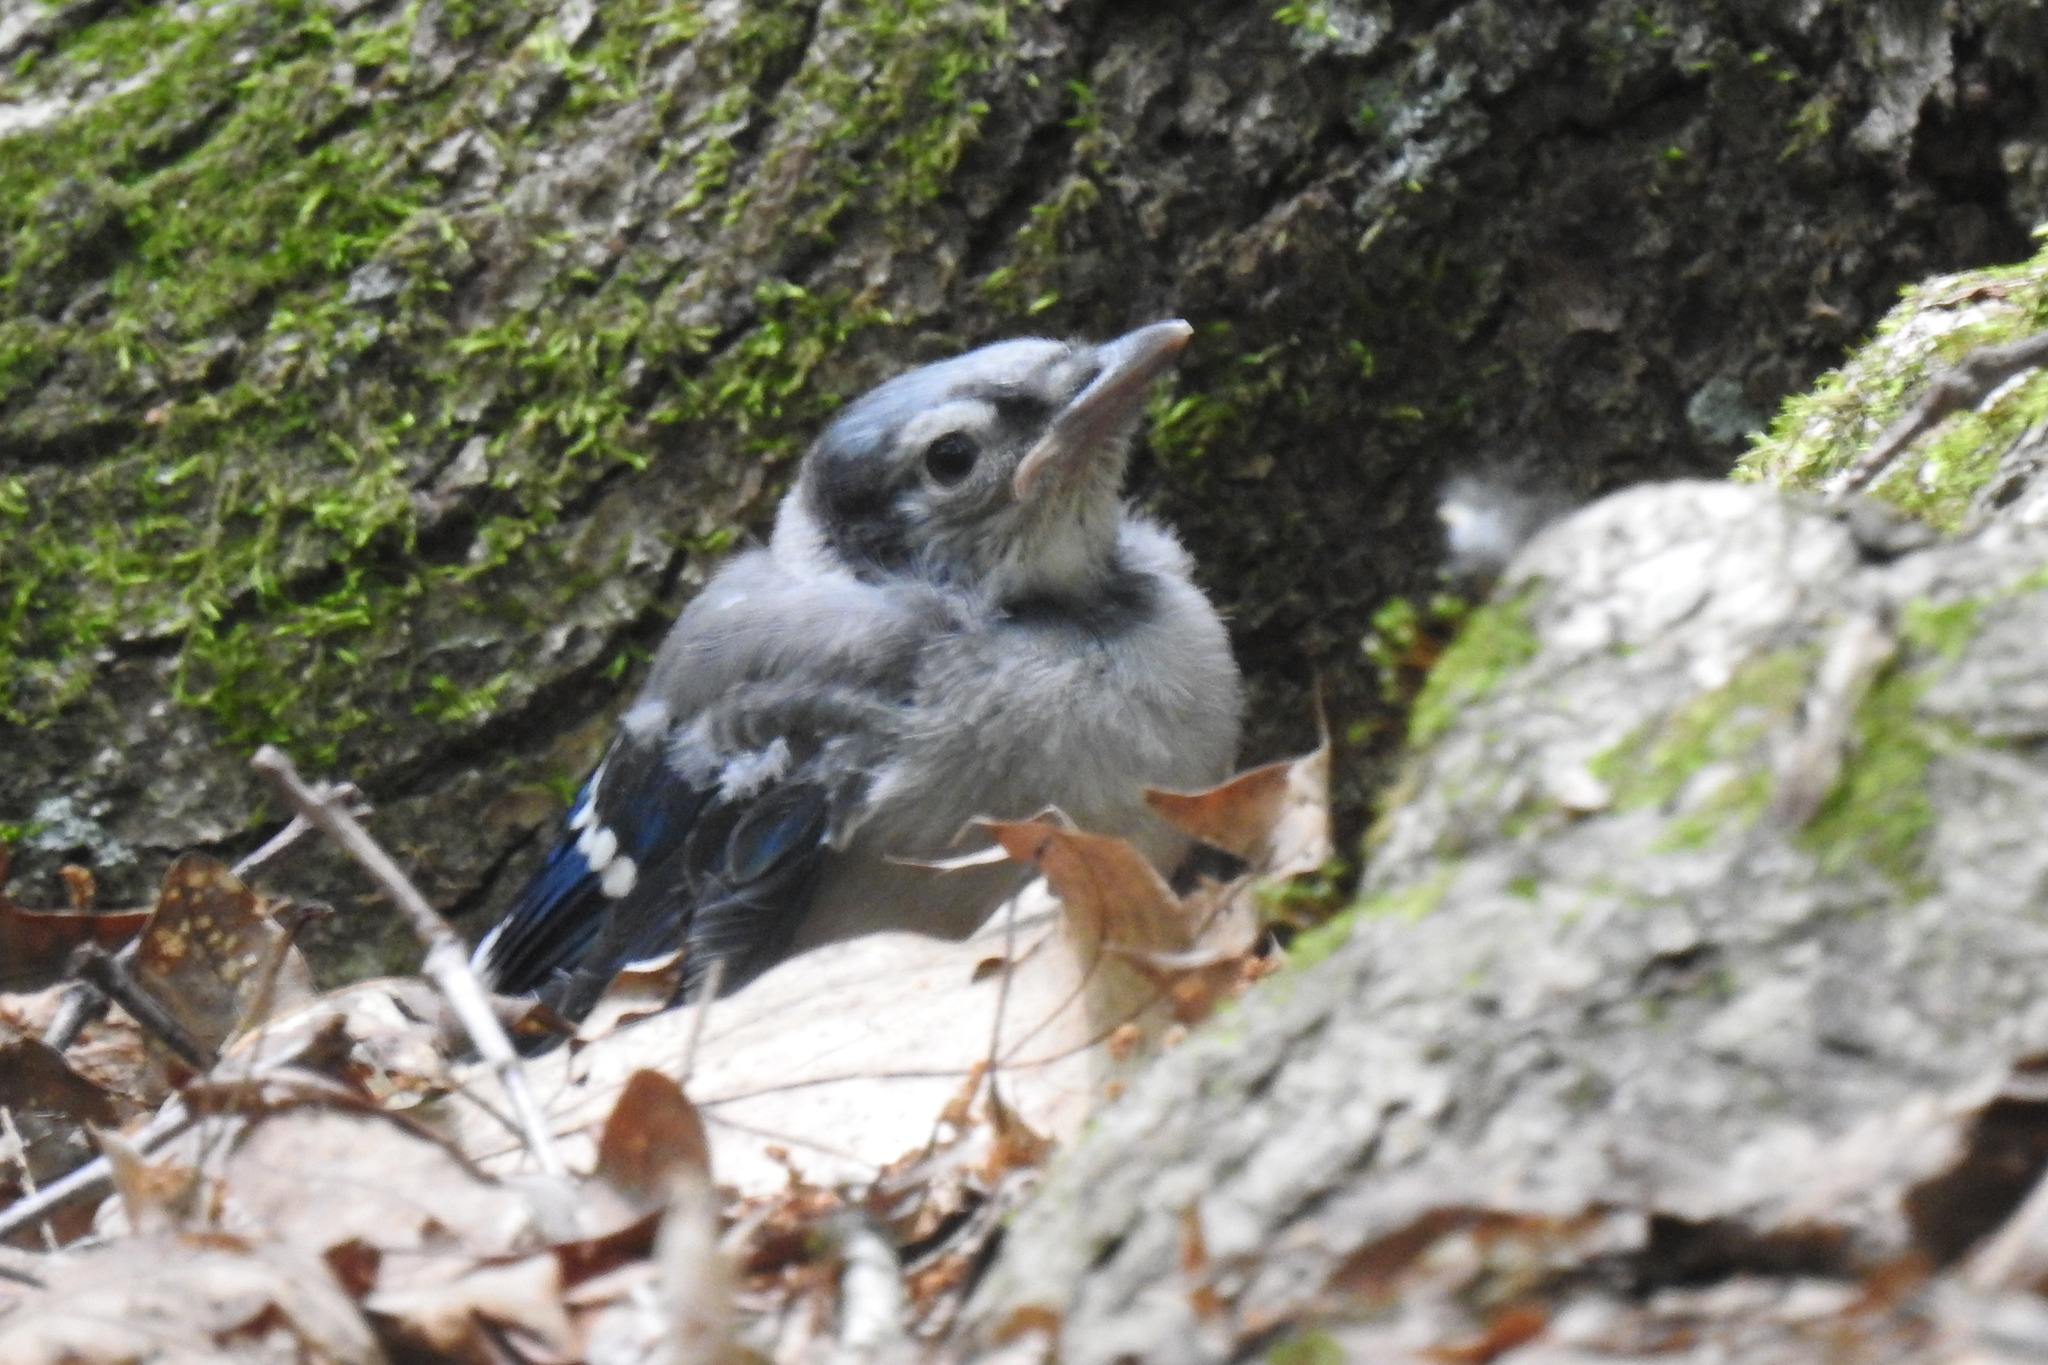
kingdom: Animalia
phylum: Chordata
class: Aves
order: Passeriformes
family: Corvidae
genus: Cyanocitta
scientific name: Cyanocitta cristata
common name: Blue jay
